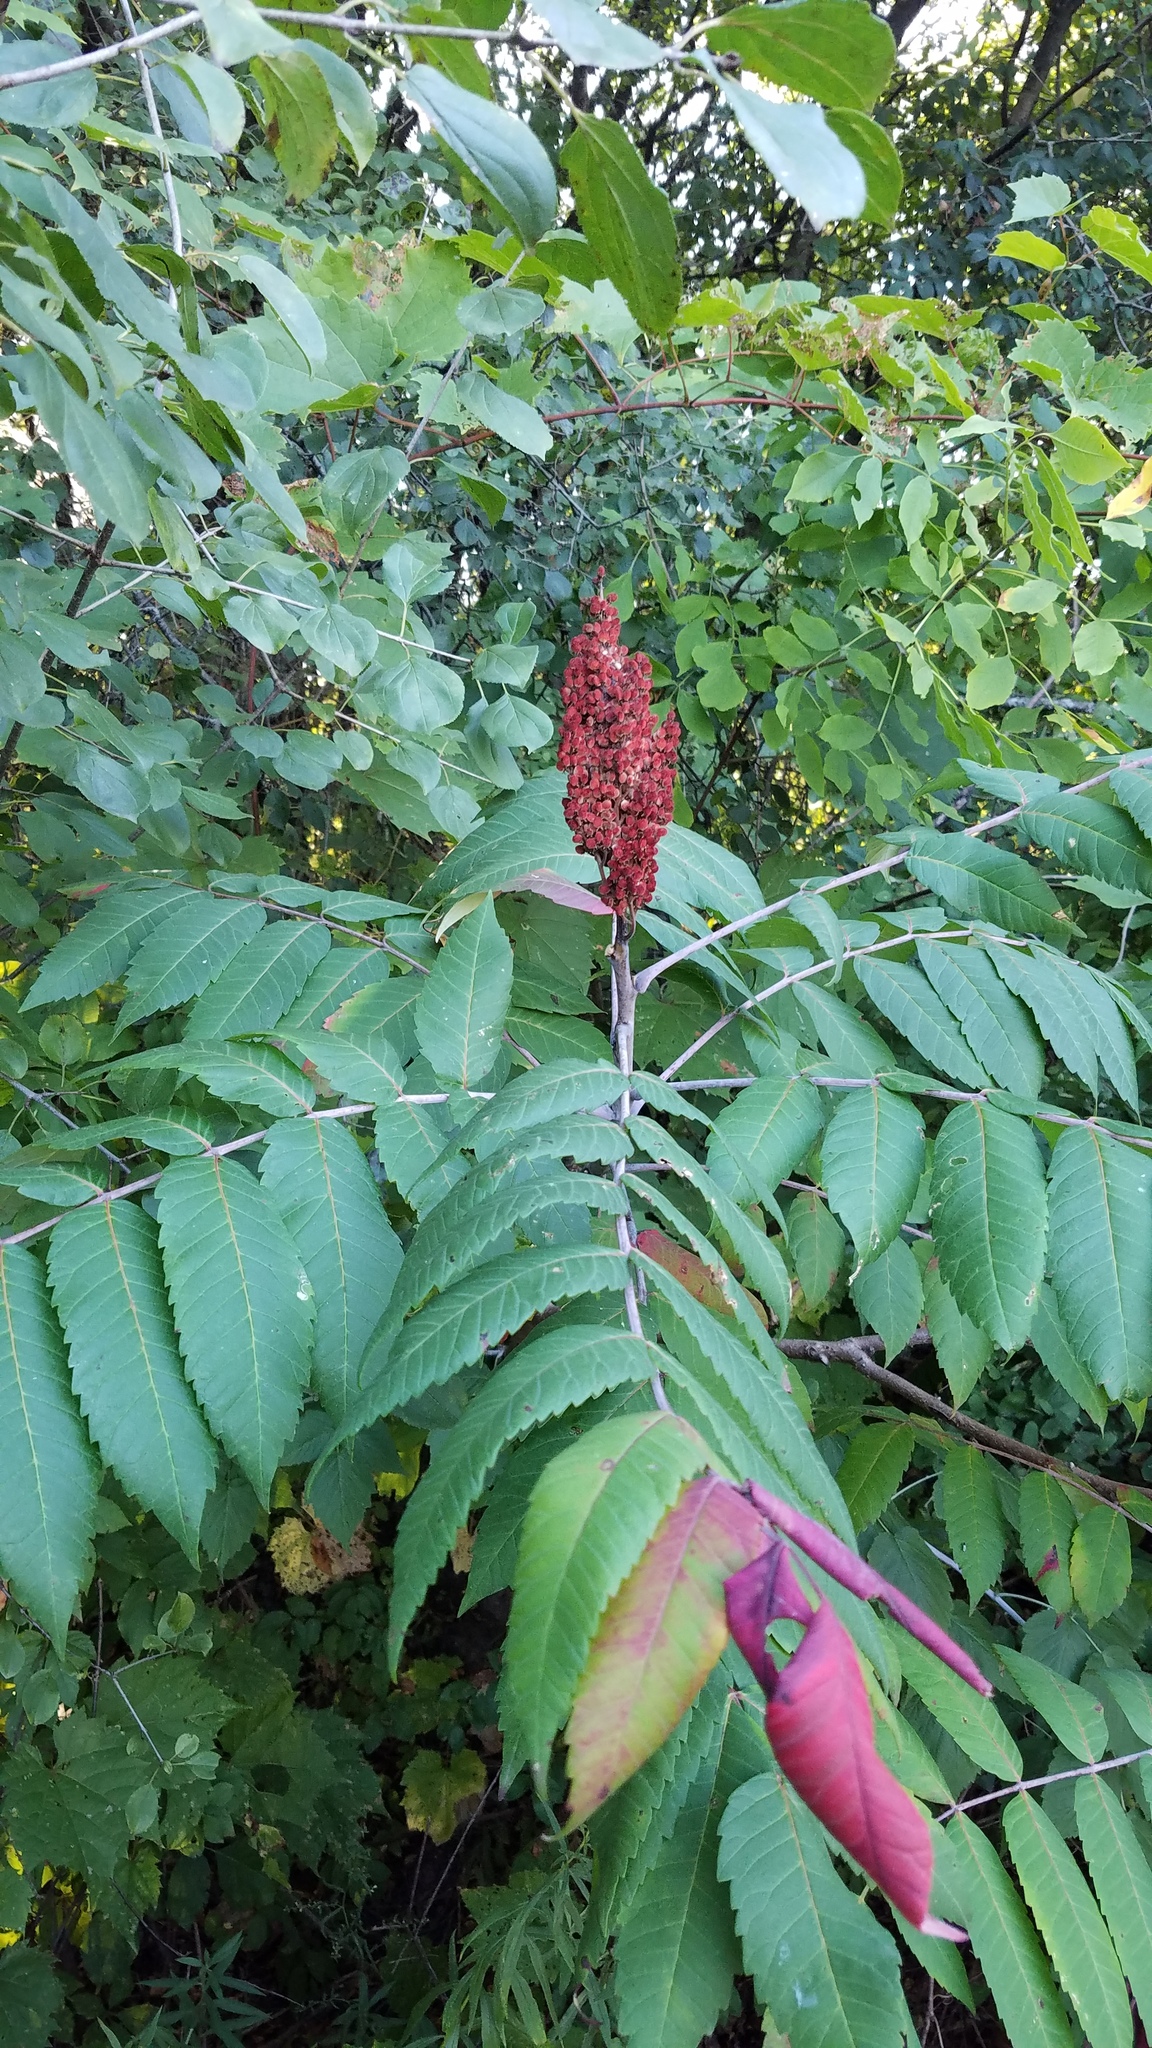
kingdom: Plantae
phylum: Tracheophyta
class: Magnoliopsida
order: Sapindales
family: Anacardiaceae
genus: Rhus
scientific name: Rhus glabra
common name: Scarlet sumac
